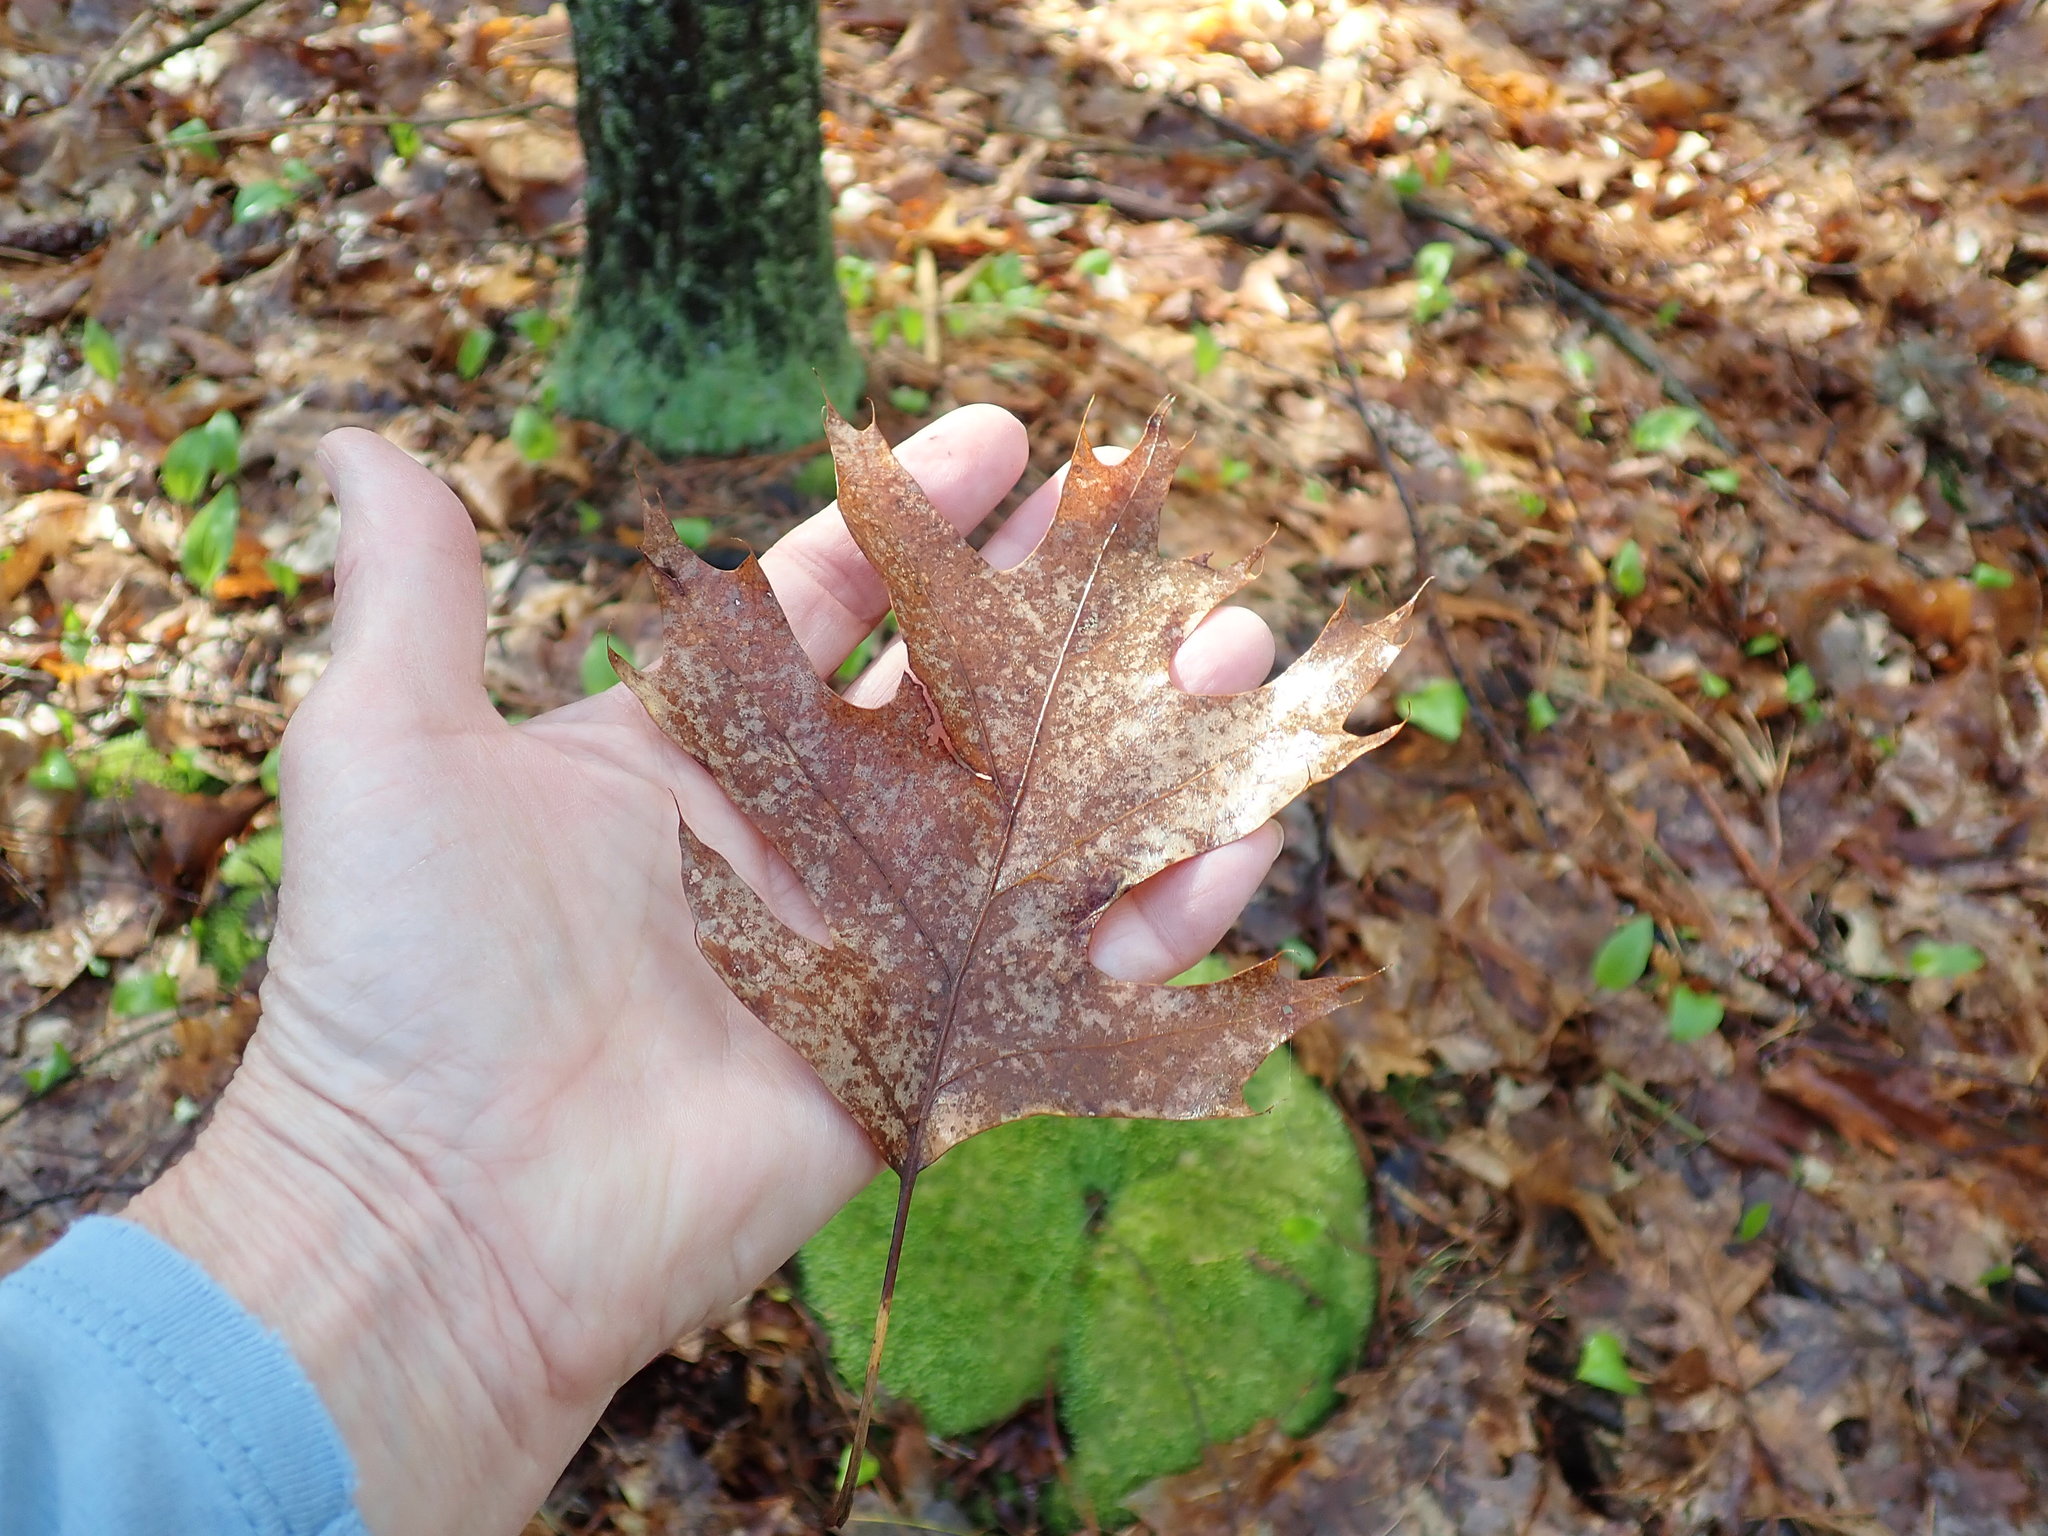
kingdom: Plantae
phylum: Tracheophyta
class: Magnoliopsida
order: Fagales
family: Fagaceae
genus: Quercus
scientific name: Quercus rubra
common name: Red oak
